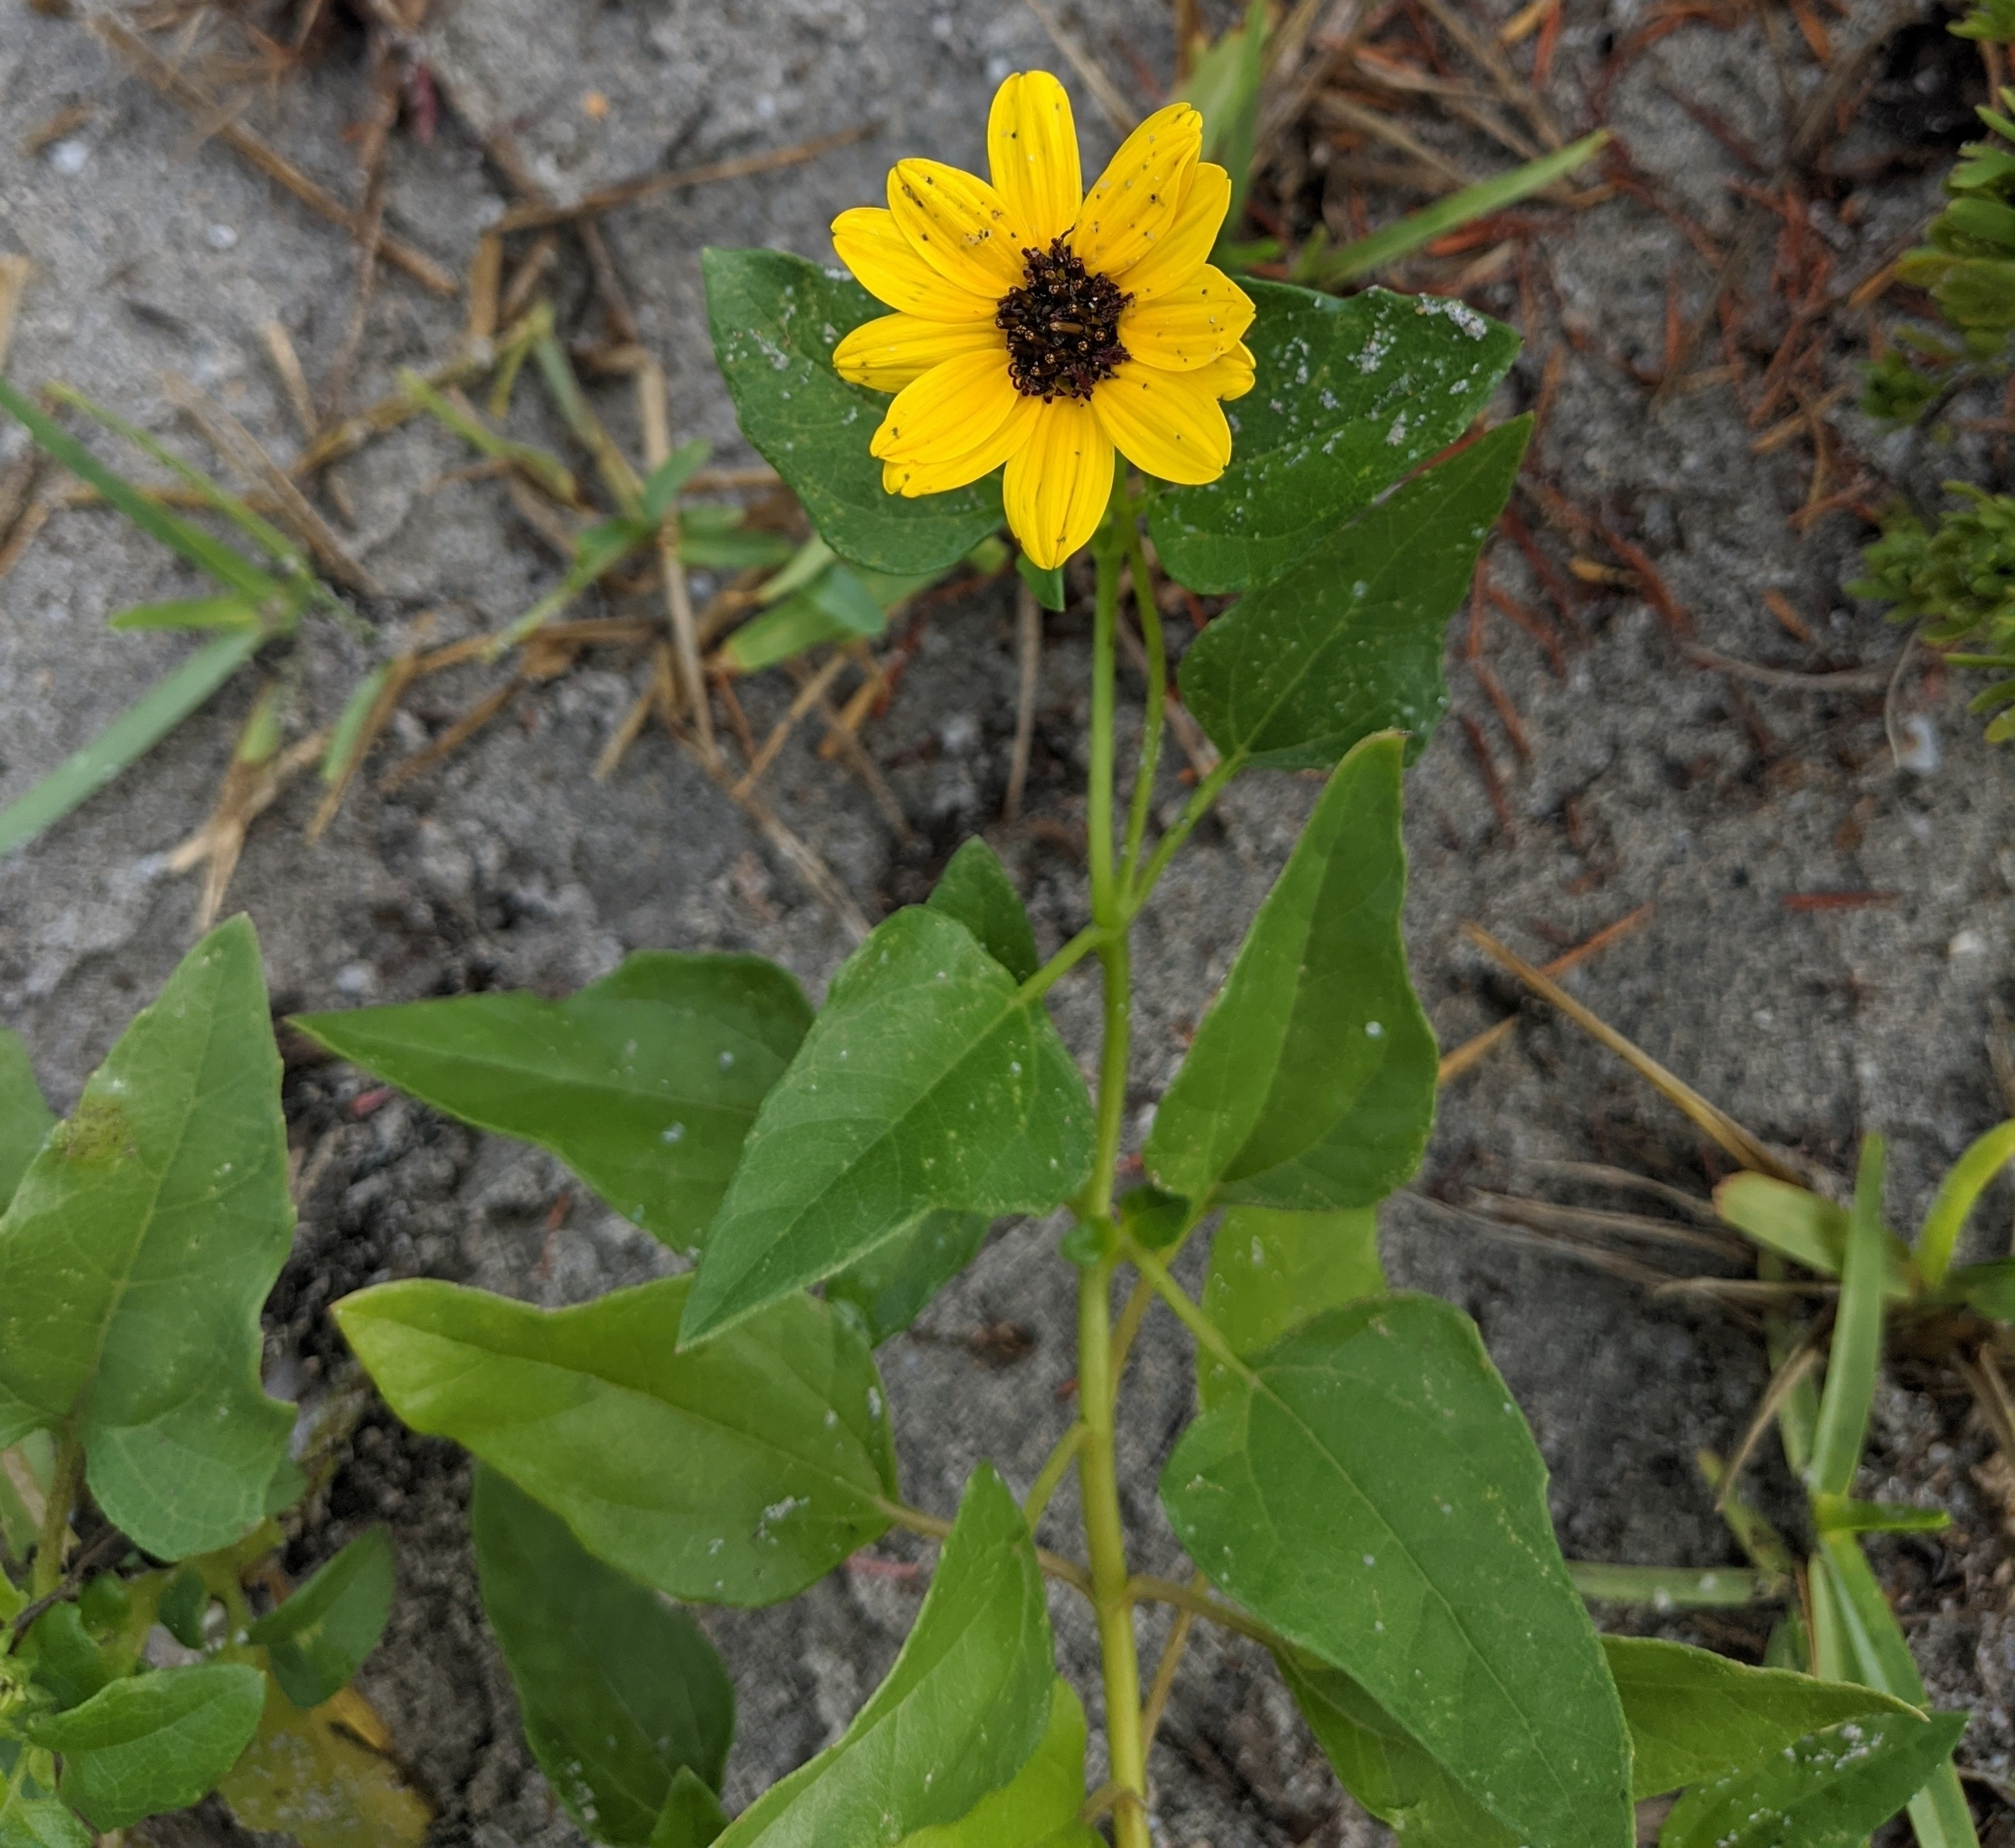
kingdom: Plantae
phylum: Tracheophyta
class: Magnoliopsida
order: Asterales
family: Asteraceae
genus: Helianthus
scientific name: Helianthus debilis
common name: Weak sunflower
